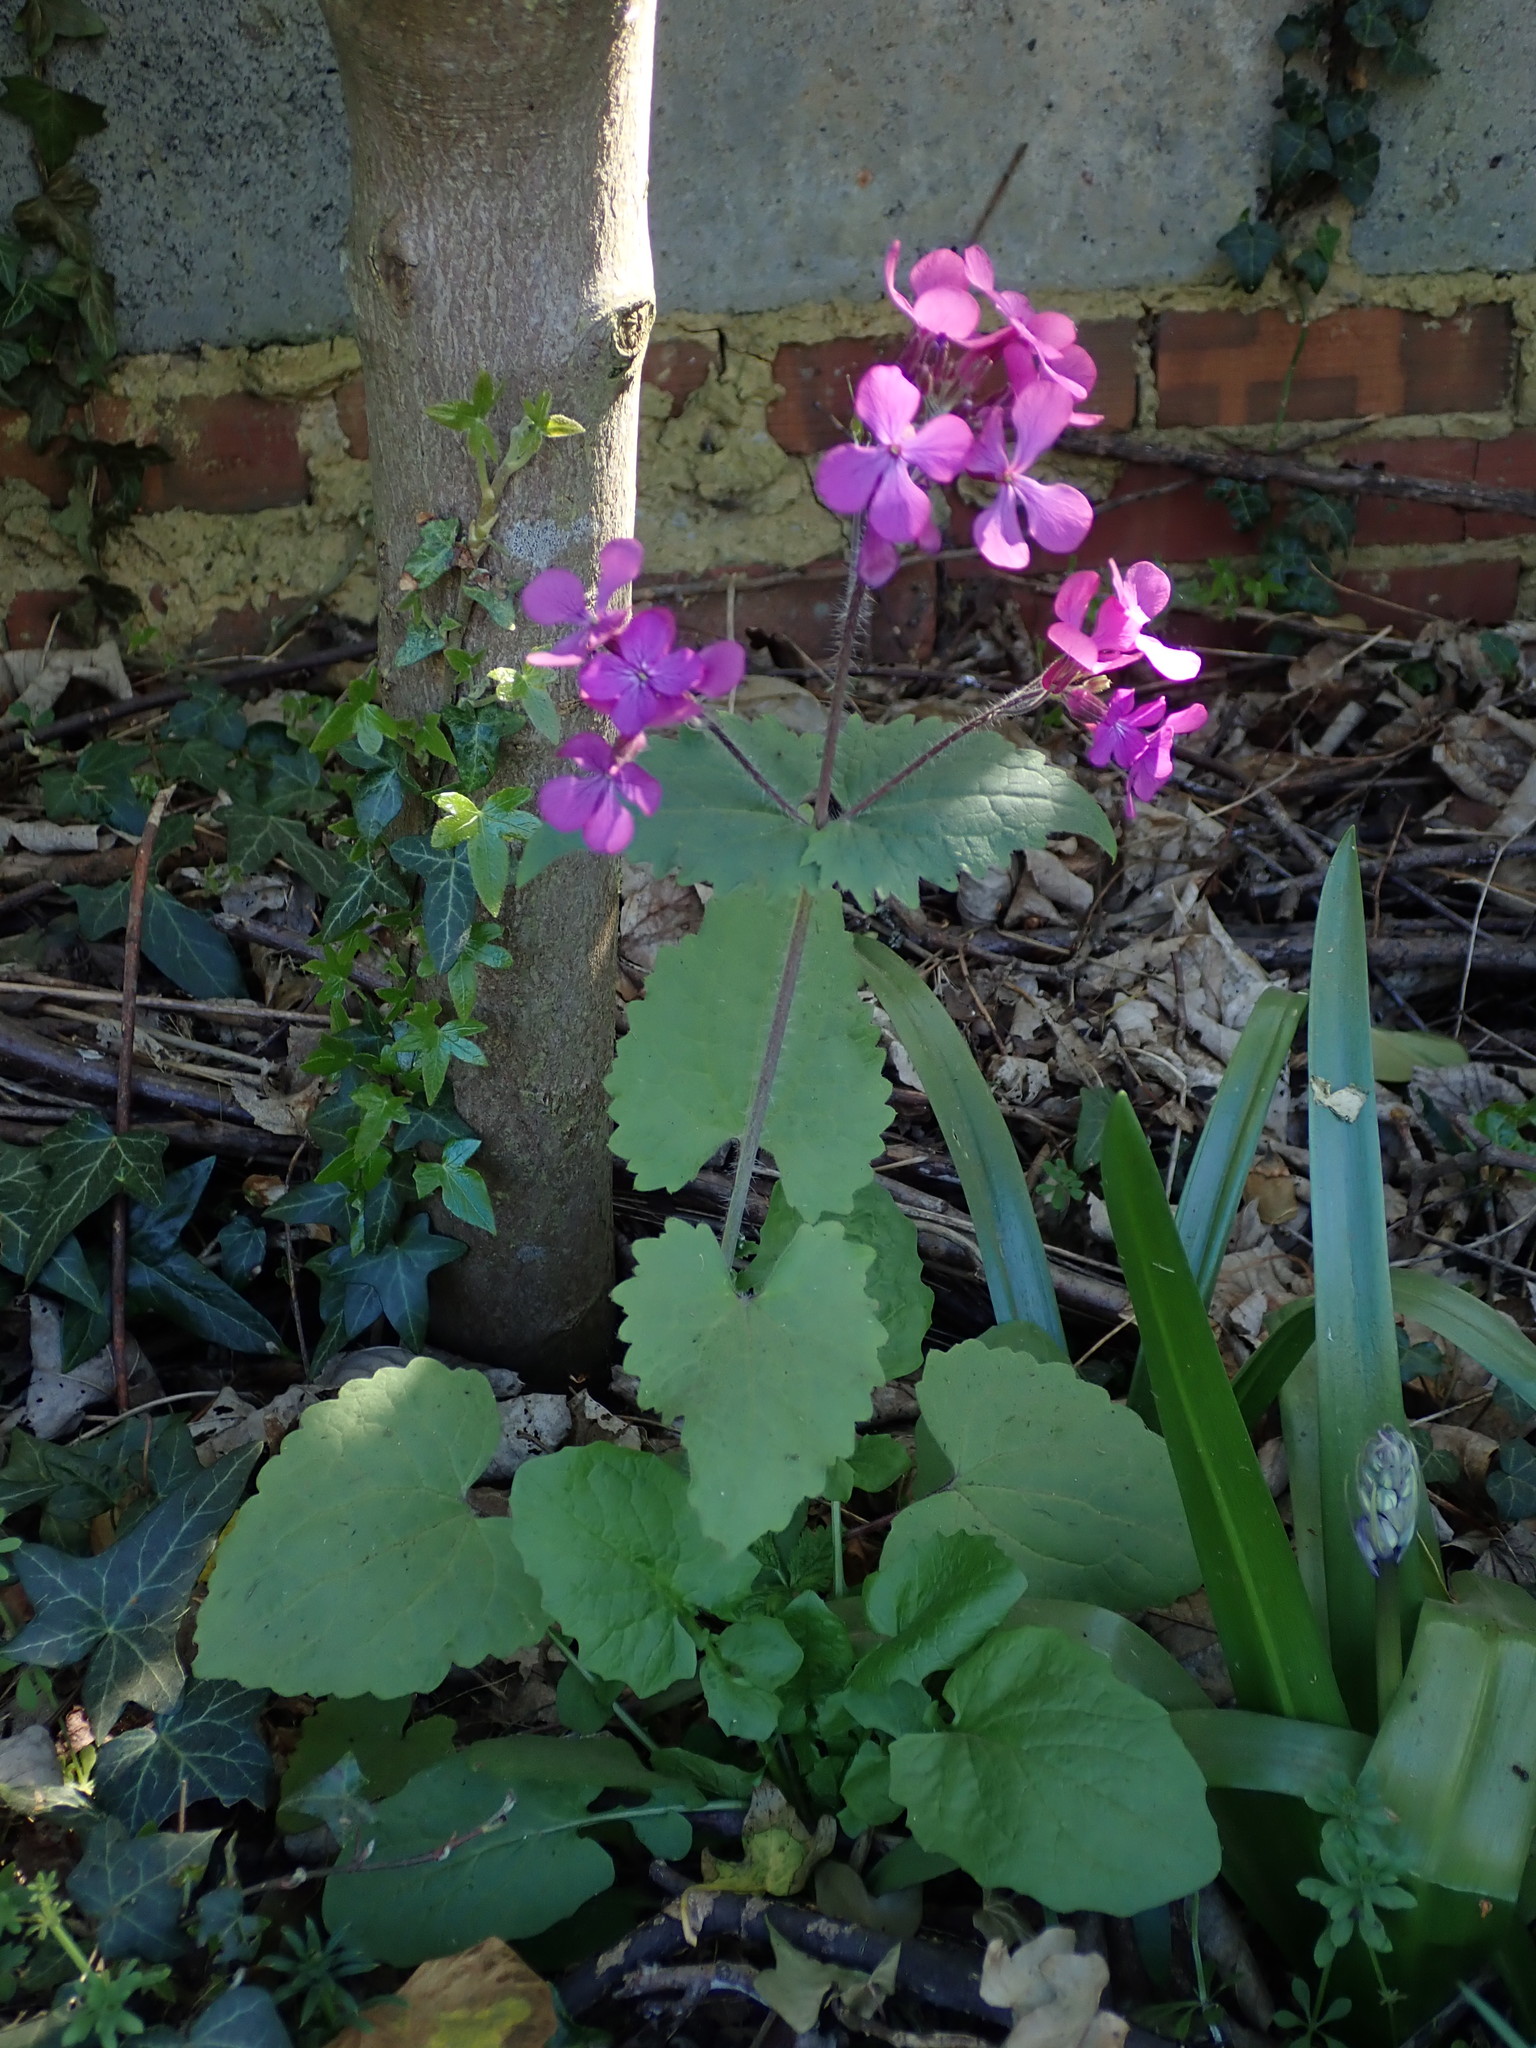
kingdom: Plantae
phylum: Tracheophyta
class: Magnoliopsida
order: Brassicales
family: Brassicaceae
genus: Lunaria
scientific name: Lunaria annua
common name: Honesty
